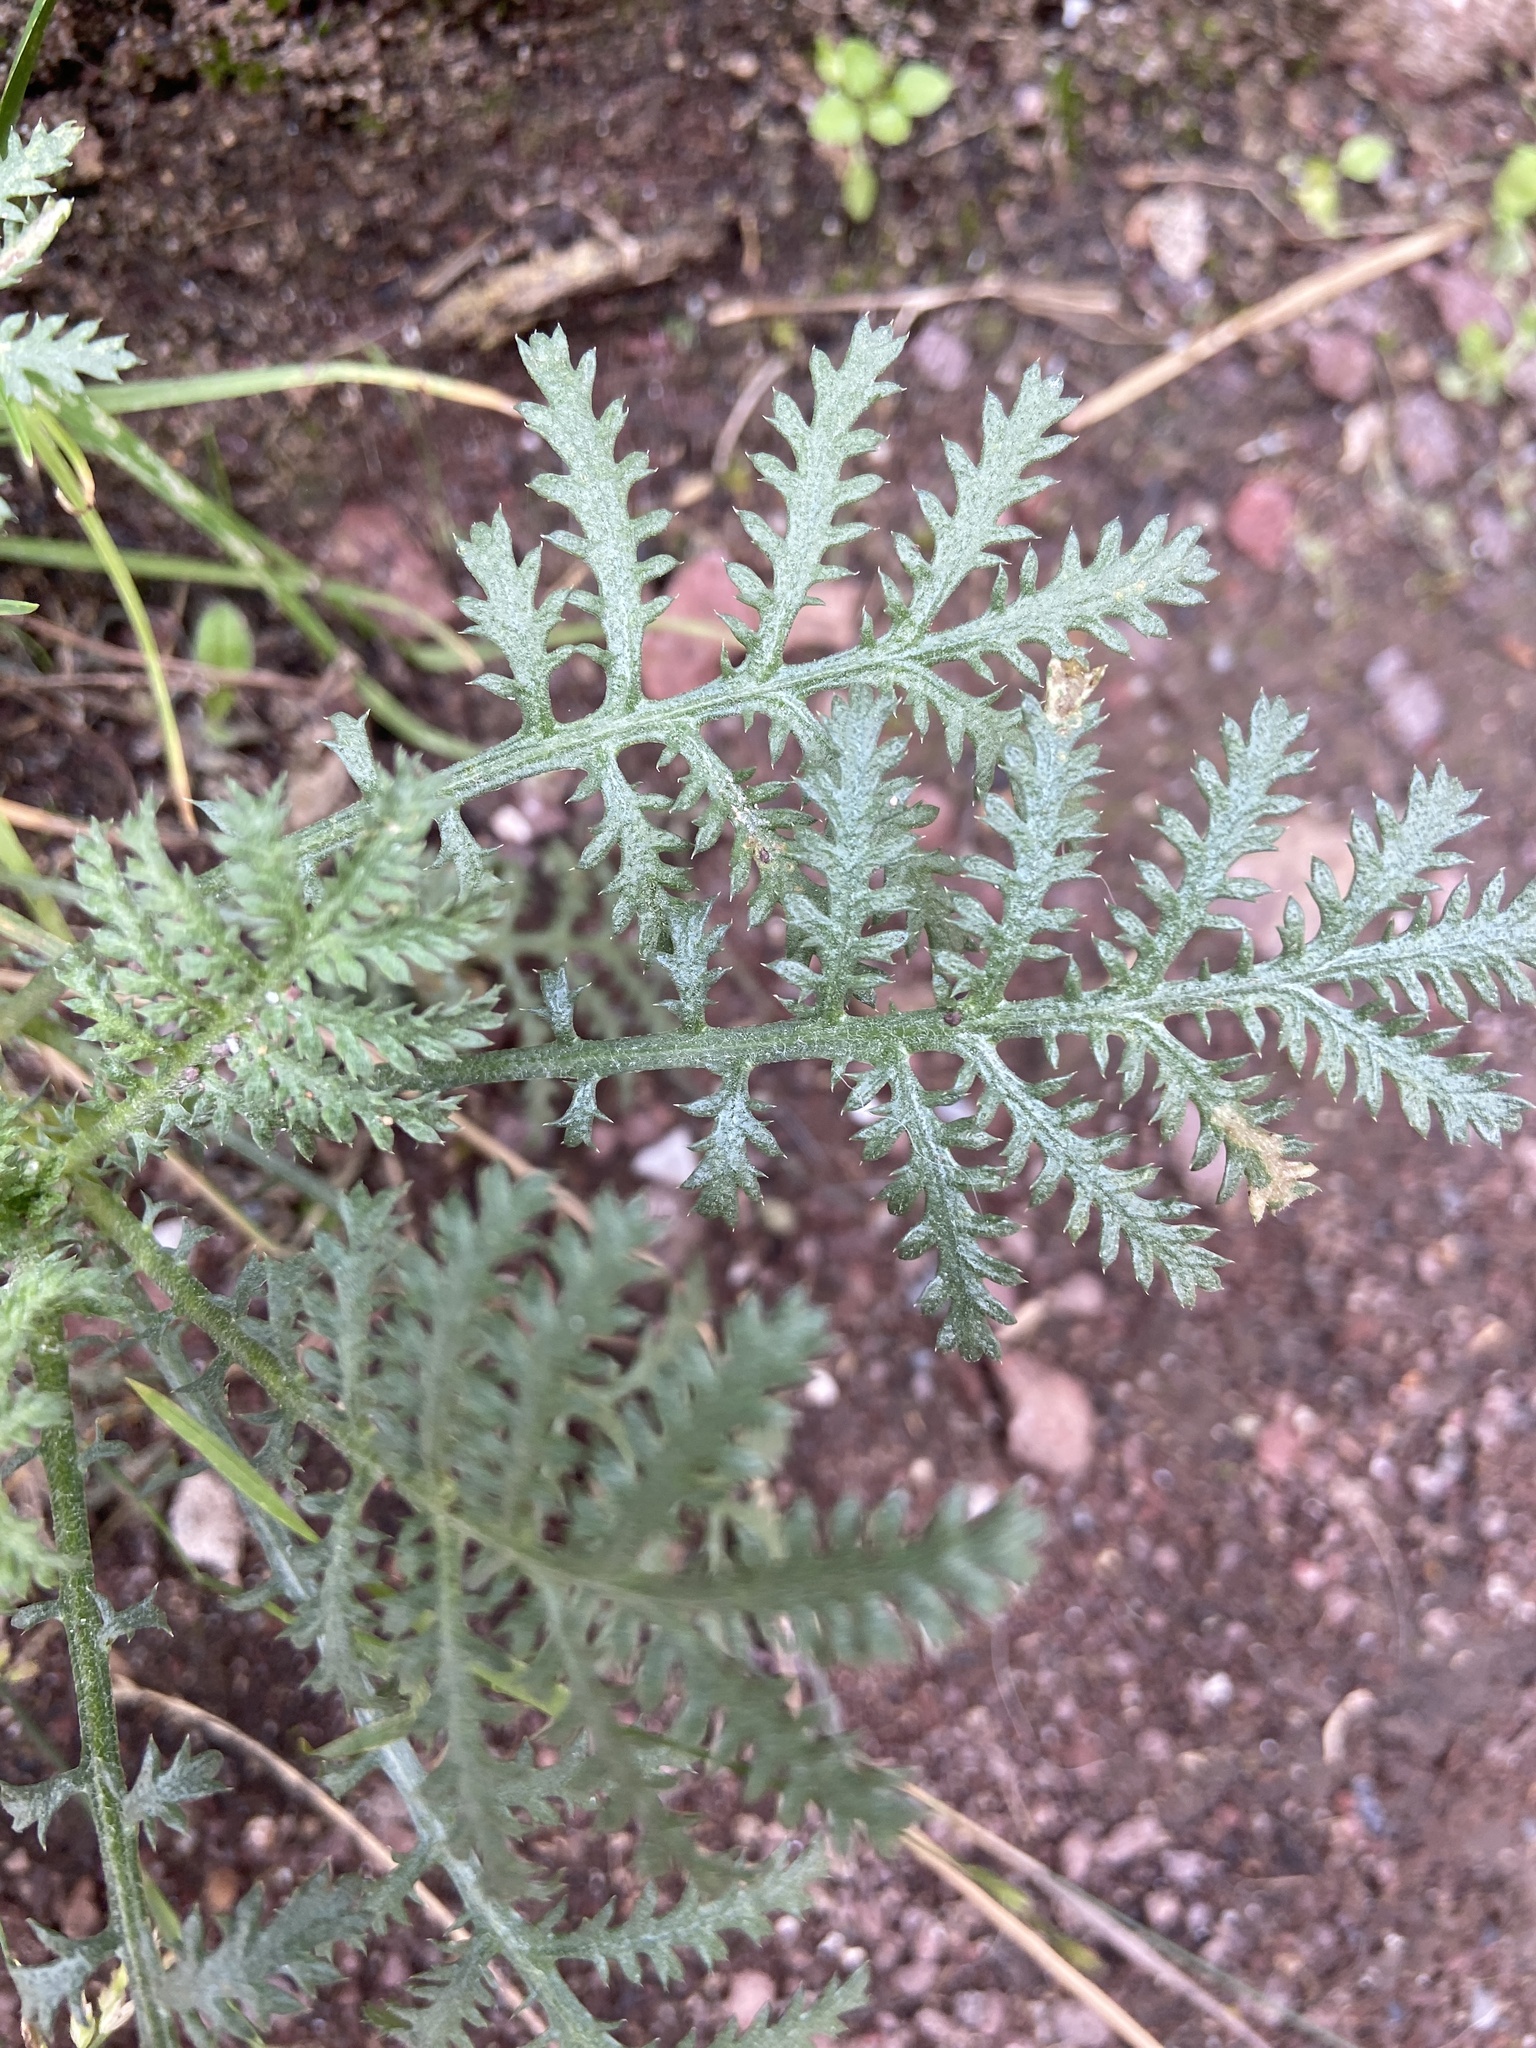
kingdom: Plantae
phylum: Tracheophyta
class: Magnoliopsida
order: Asterales
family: Asteraceae
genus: Cota
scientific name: Cota tinctoria
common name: Golden chamomile
